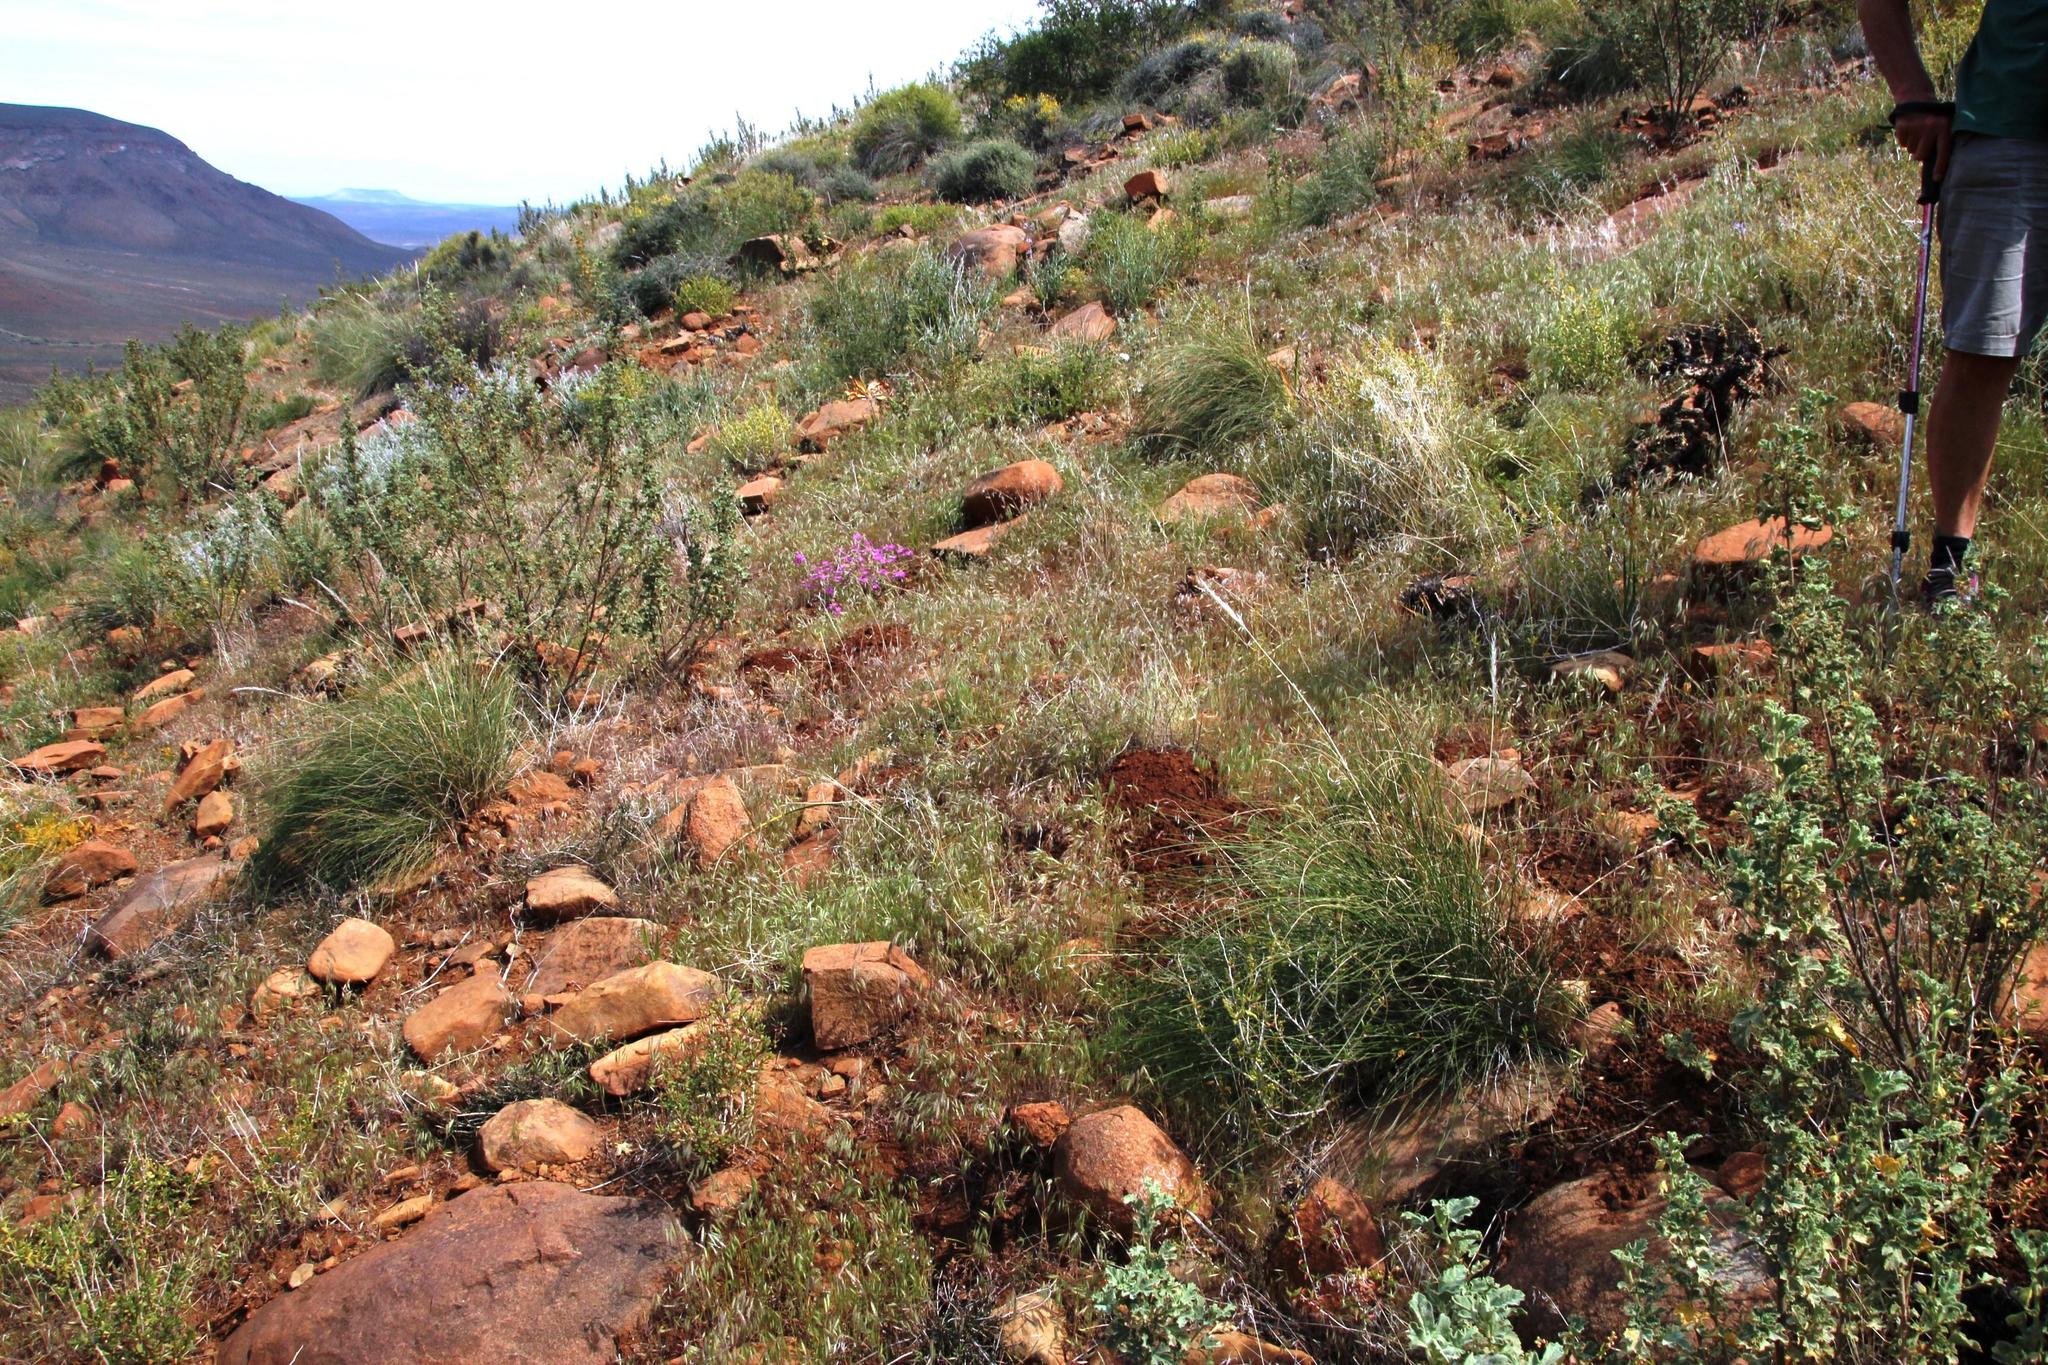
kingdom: Animalia
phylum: Chordata
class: Mammalia
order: Rodentia
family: Bathyergidae
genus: Cryptomys
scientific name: Cryptomys hottentotus
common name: Southern african mole-rat
